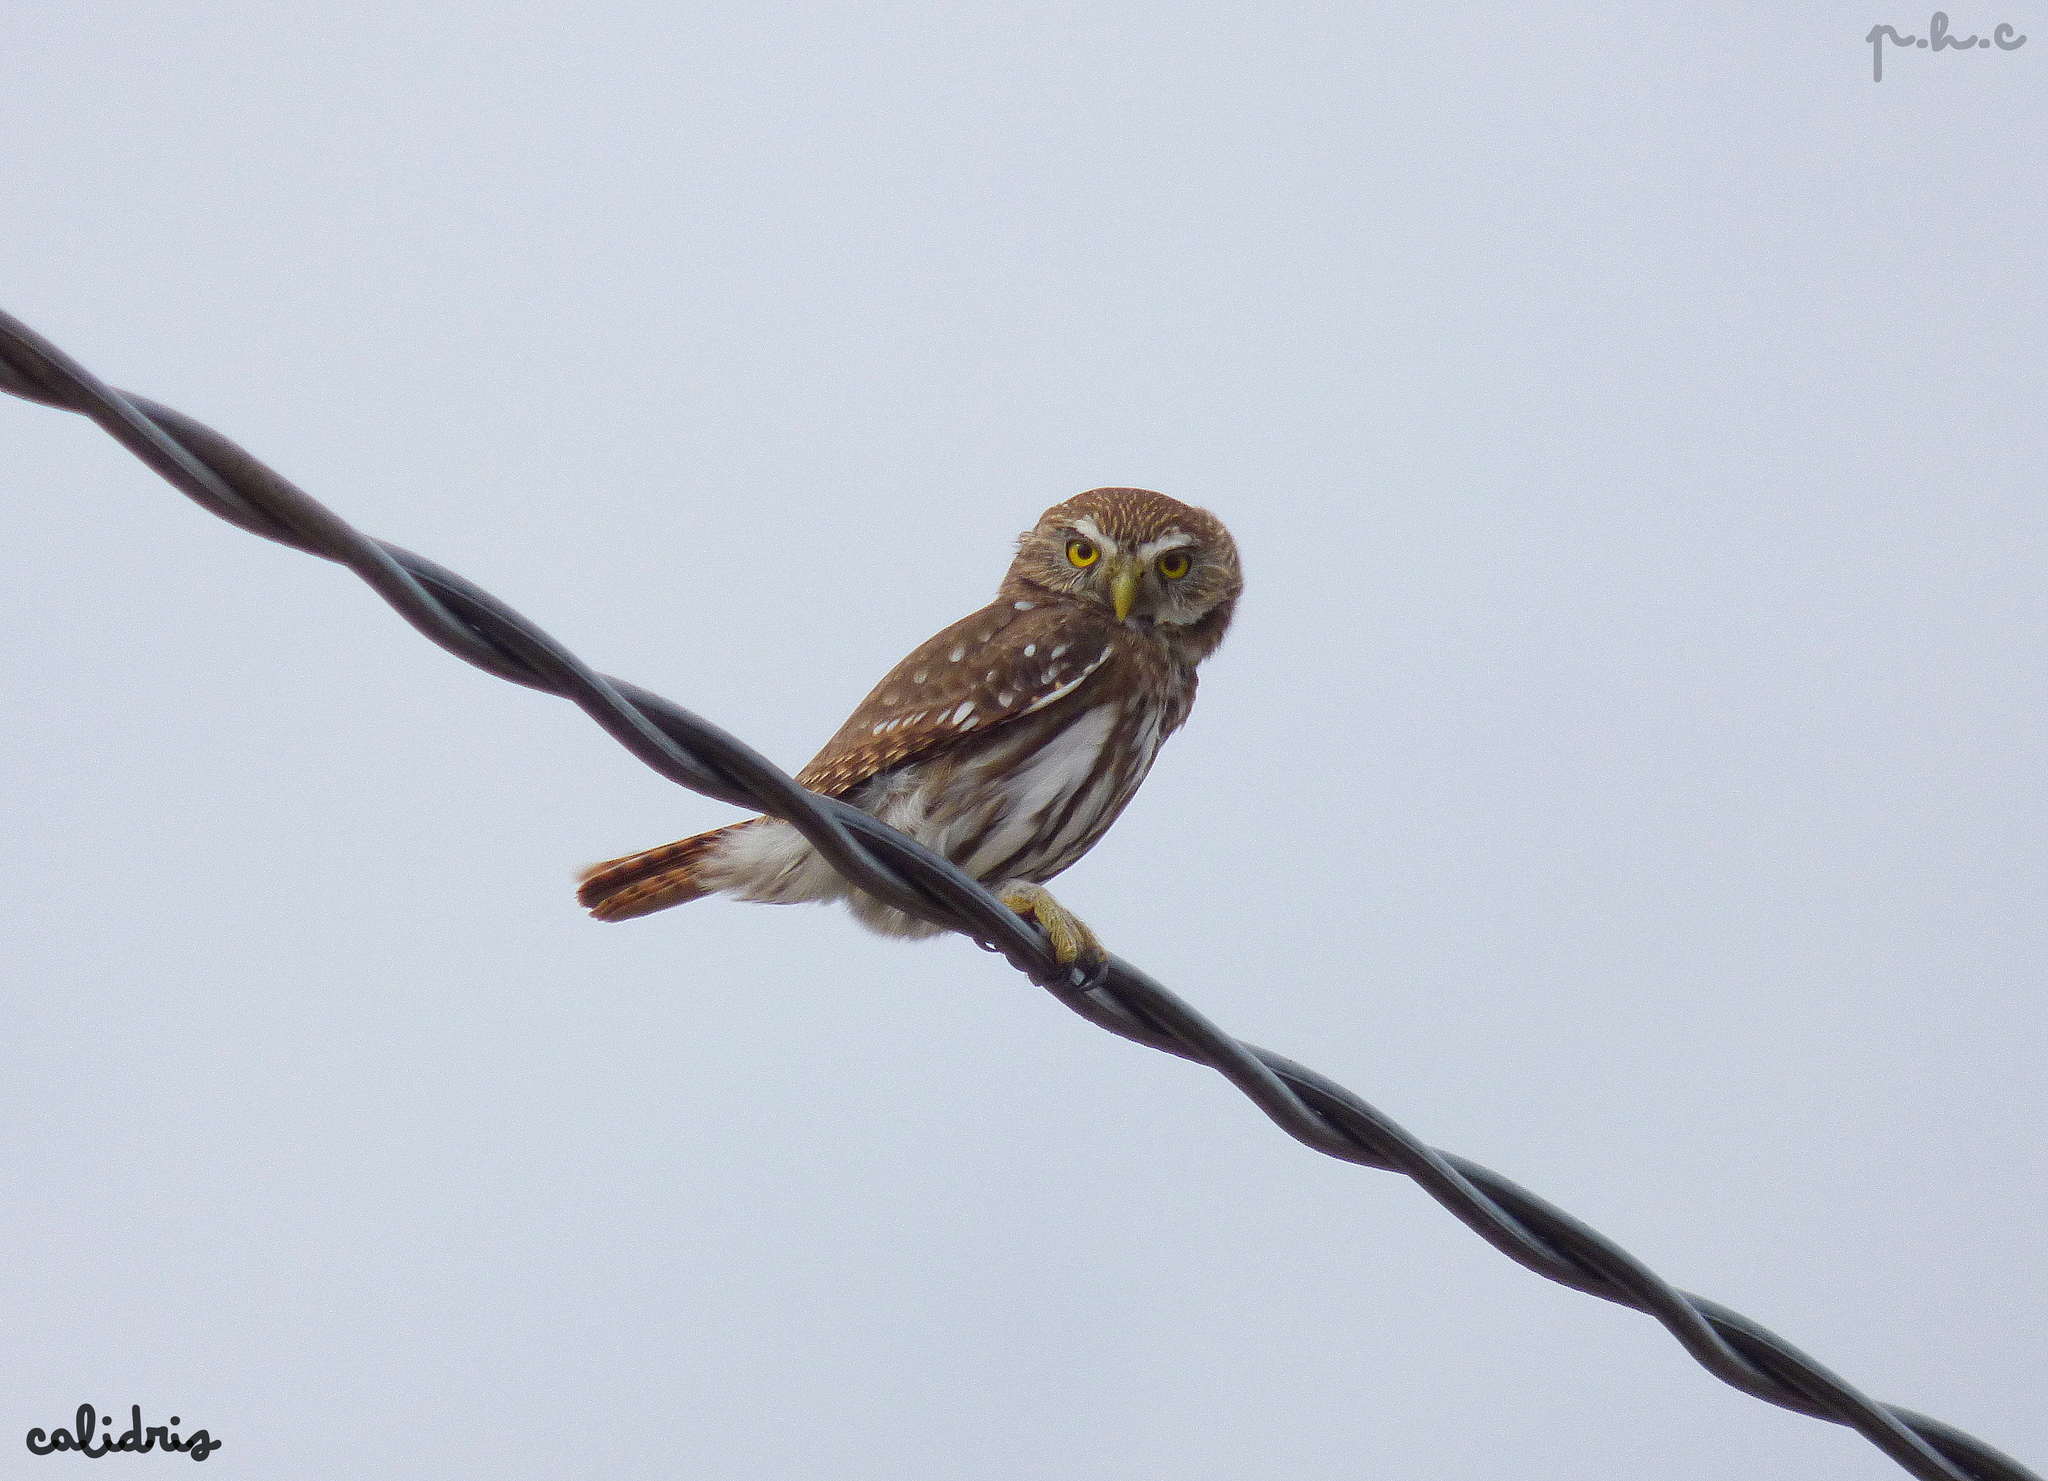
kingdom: Animalia
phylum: Chordata
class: Aves
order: Strigiformes
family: Strigidae
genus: Glaucidium
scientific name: Glaucidium brasilianum
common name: Ferruginous pygmy-owl
